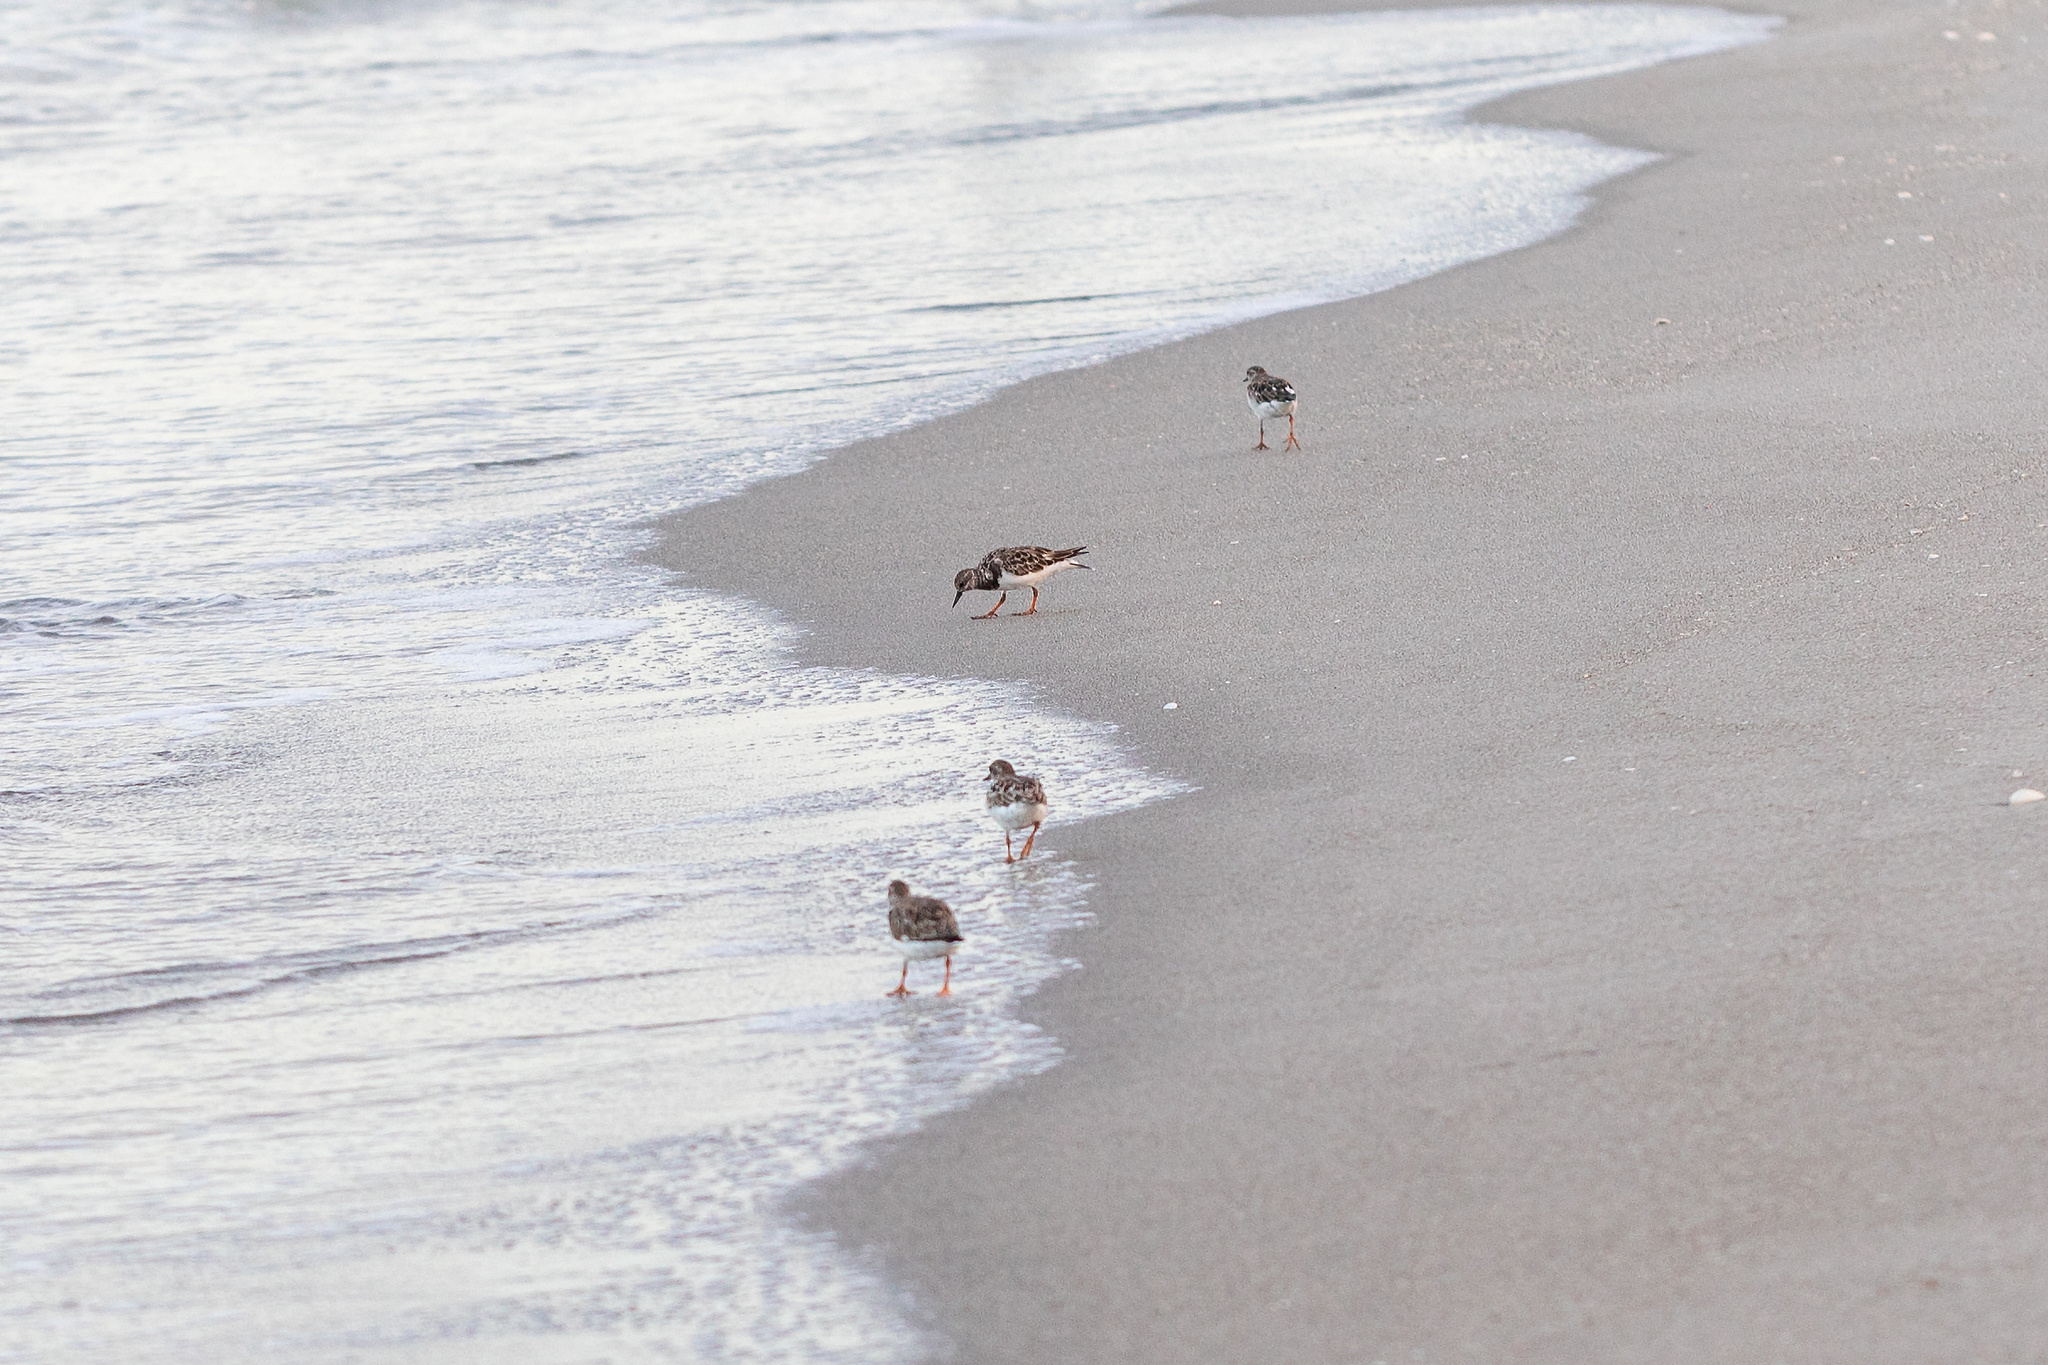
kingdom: Animalia
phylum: Chordata
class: Aves
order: Charadriiformes
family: Scolopacidae
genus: Arenaria
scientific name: Arenaria interpres
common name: Ruddy turnstone
